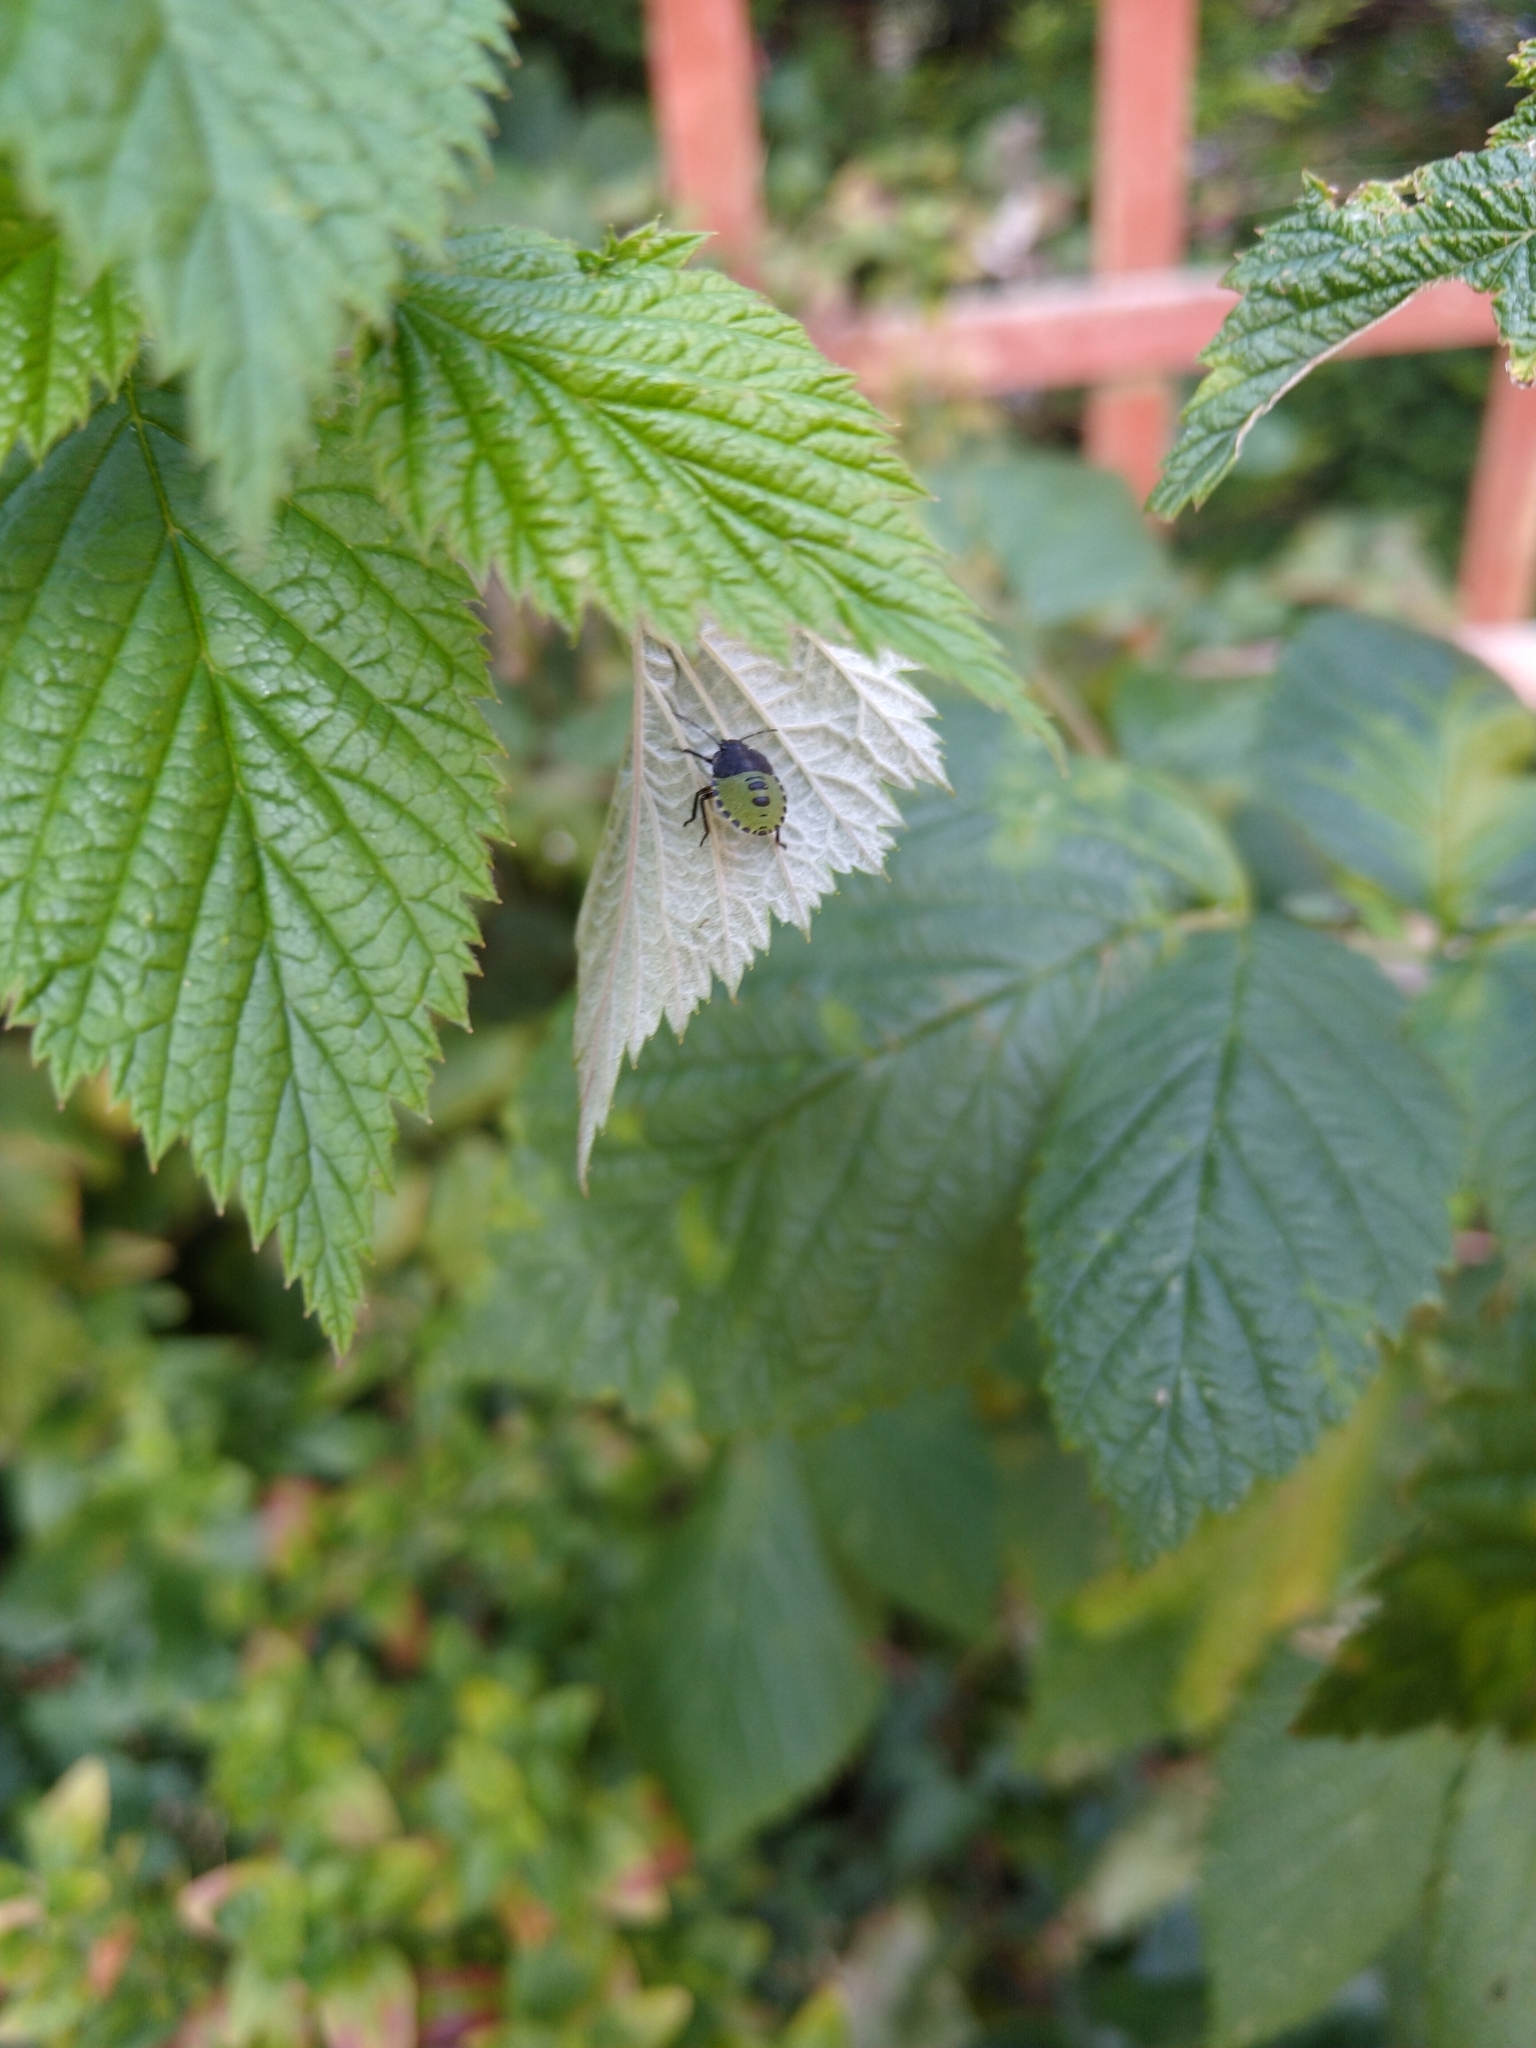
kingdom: Animalia
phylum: Arthropoda
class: Insecta
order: Hemiptera
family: Pentatomidae
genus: Palomena
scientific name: Palomena prasina
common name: Green shieldbug
